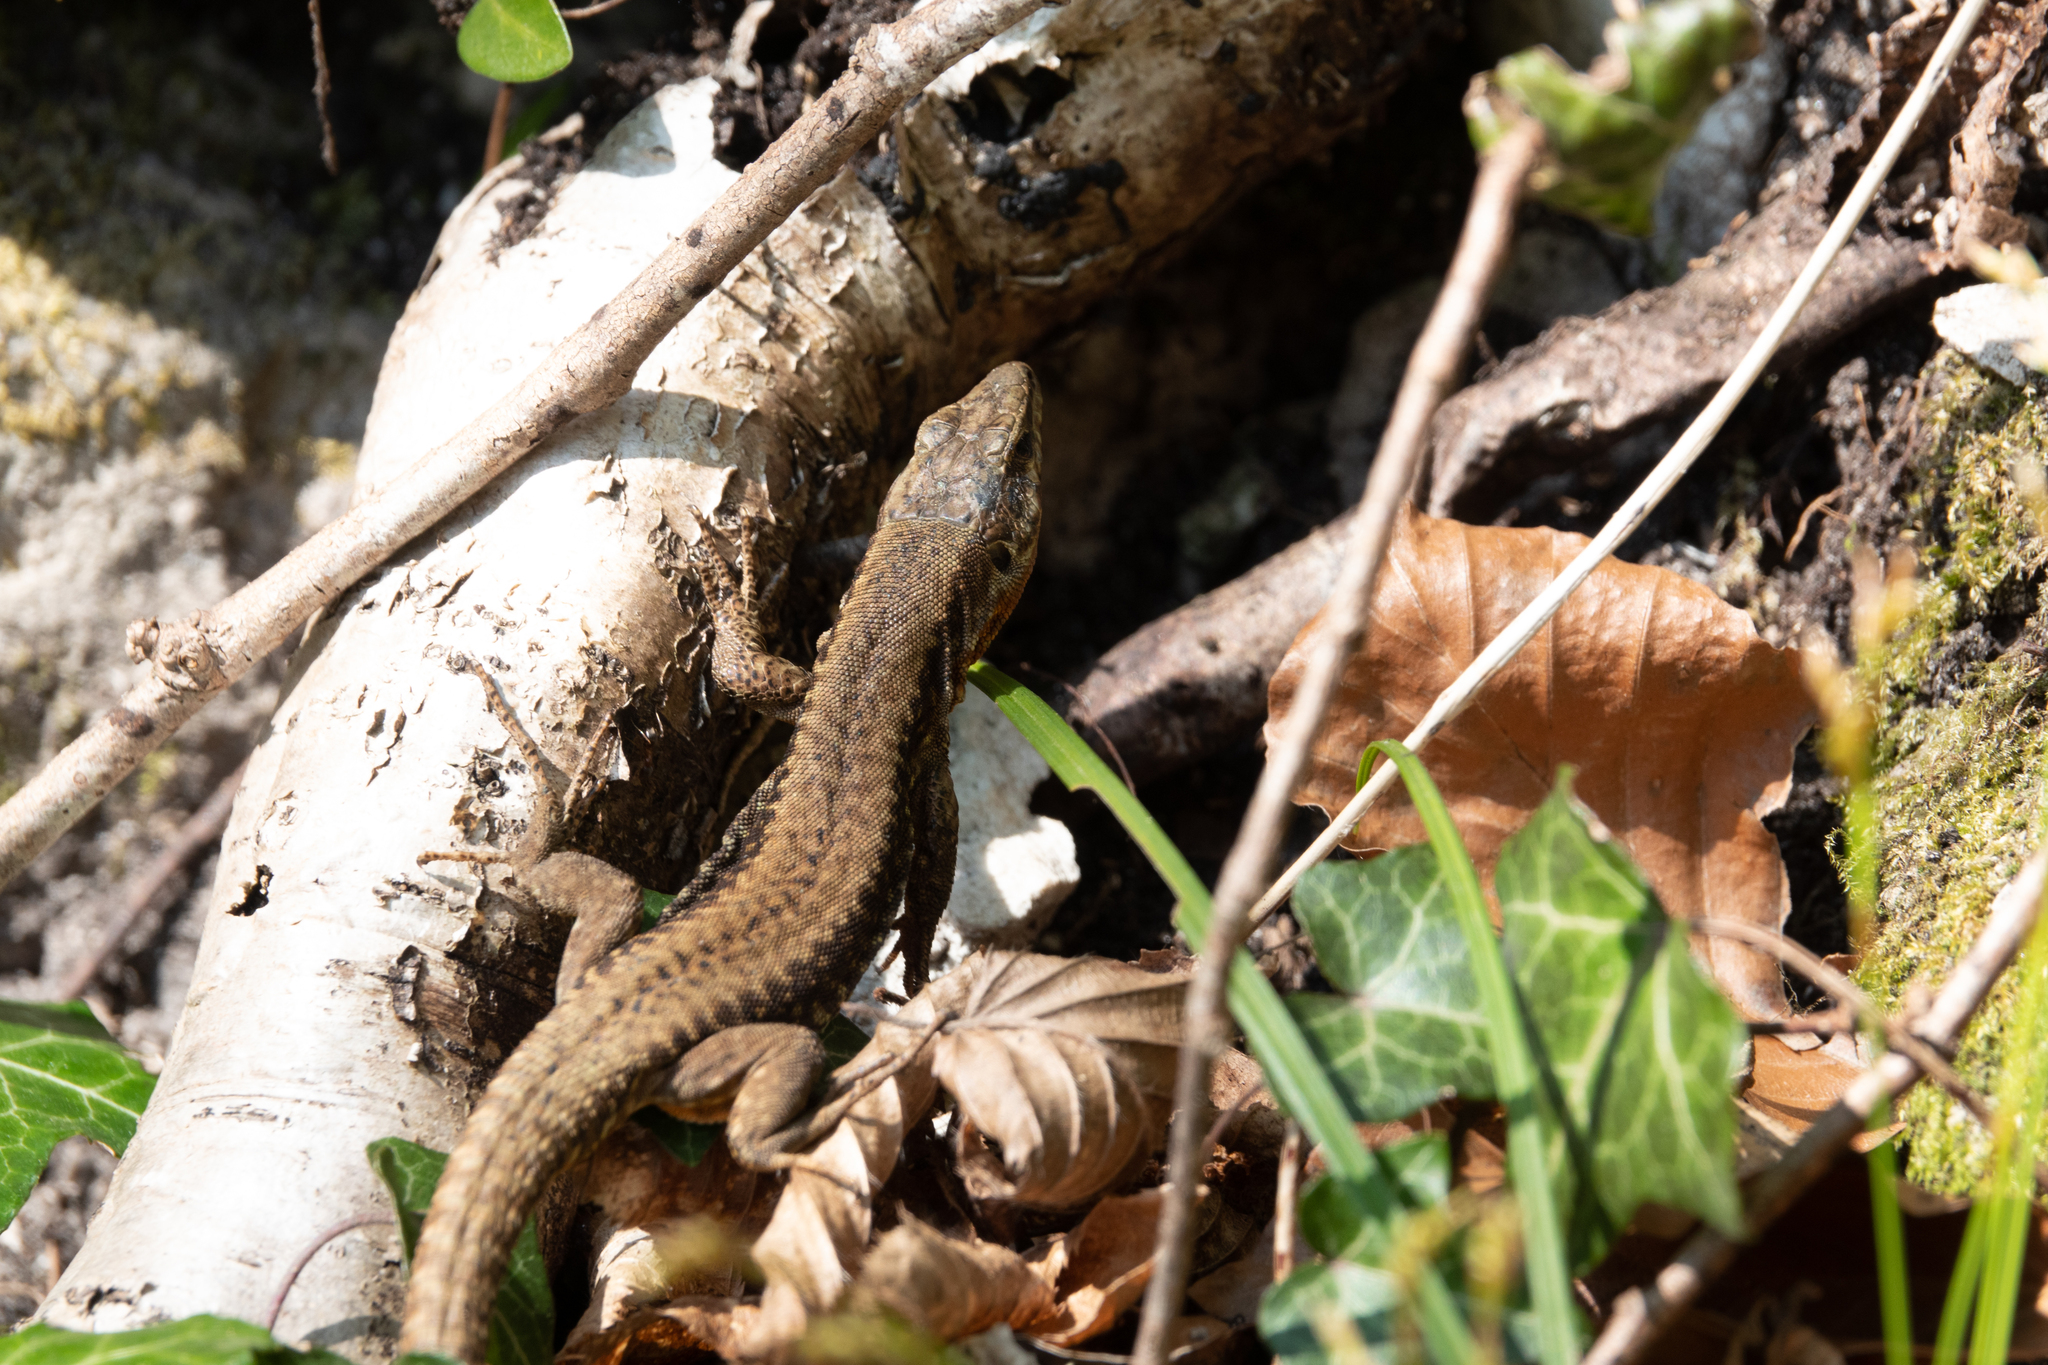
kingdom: Animalia
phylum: Chordata
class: Squamata
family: Lacertidae
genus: Podarcis
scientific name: Podarcis muralis
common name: Common wall lizard
